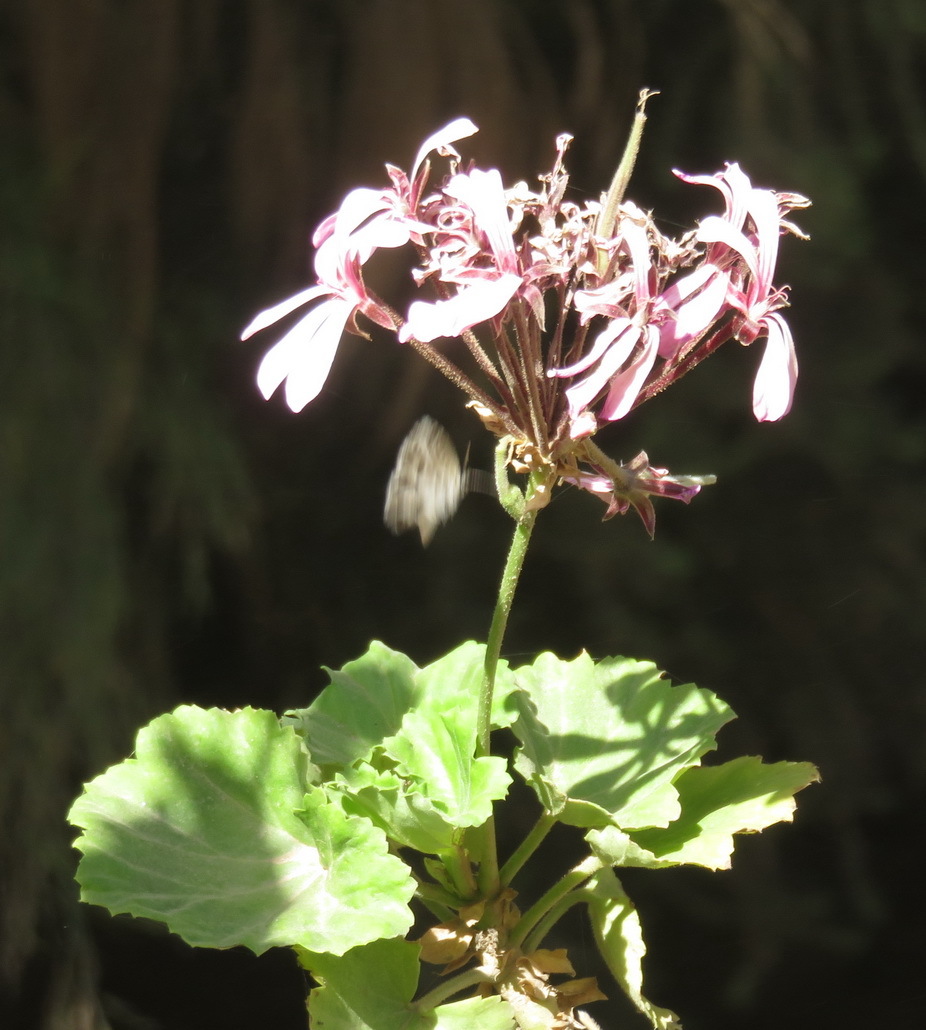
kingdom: Plantae
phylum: Tracheophyta
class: Magnoliopsida
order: Geraniales
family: Geraniaceae
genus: Pelargonium
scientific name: Pelargonium zonale
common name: Horseshoe geranium
